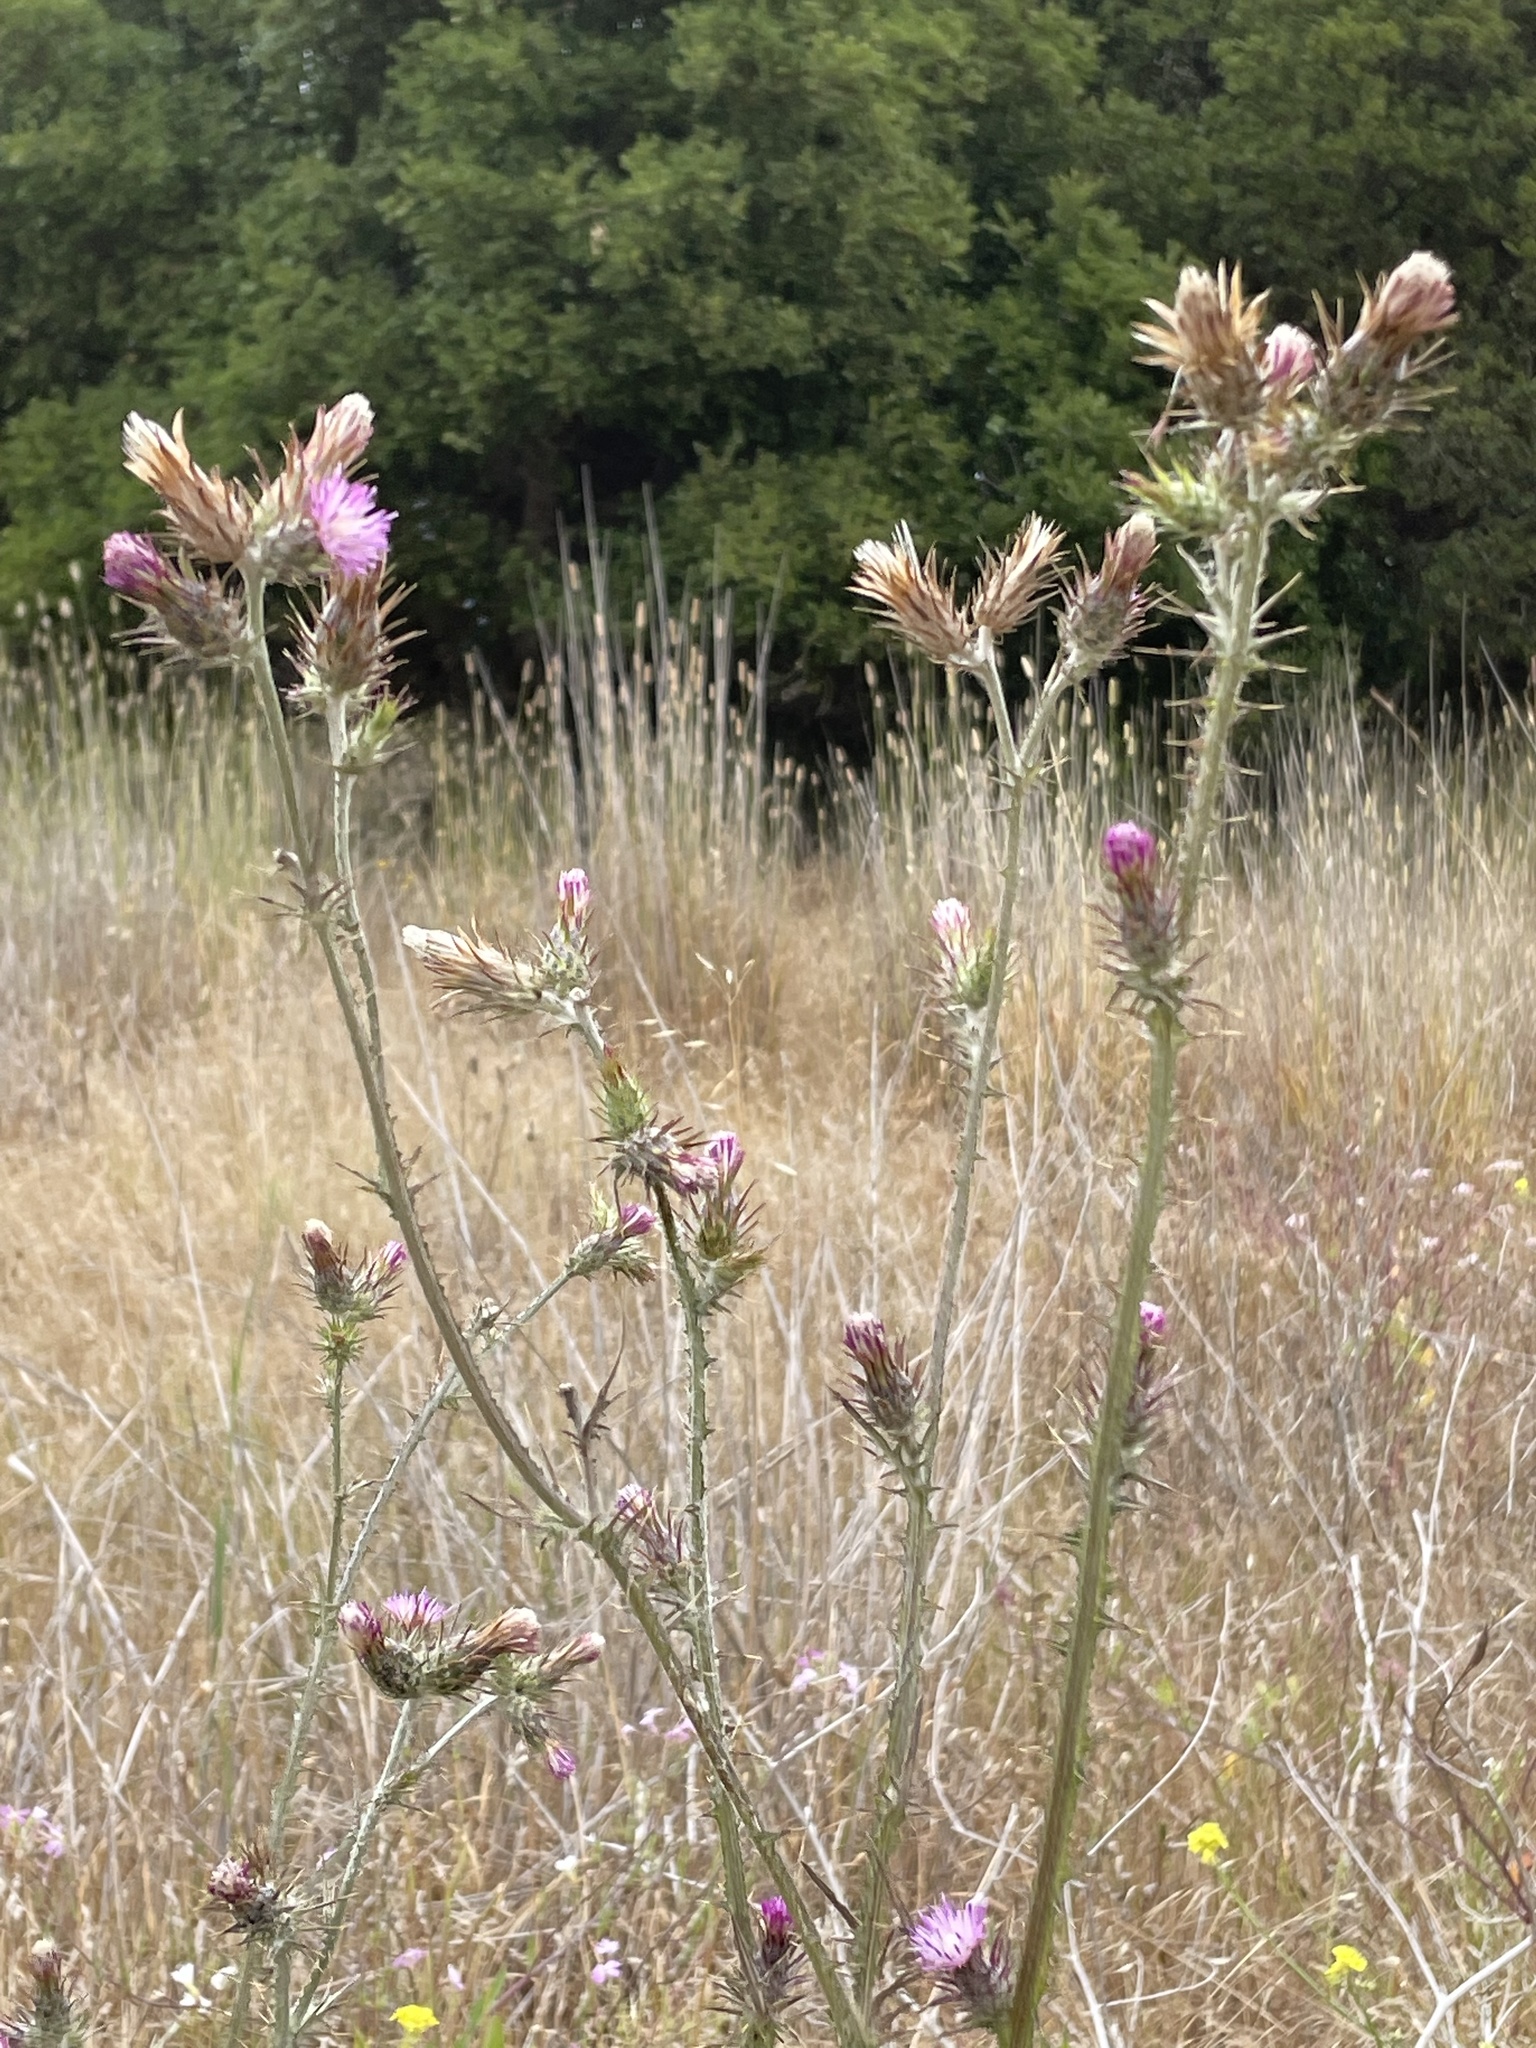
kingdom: Plantae
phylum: Tracheophyta
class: Magnoliopsida
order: Asterales
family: Asteraceae
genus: Carduus
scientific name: Carduus pycnocephalus
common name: Plymouth thistle
